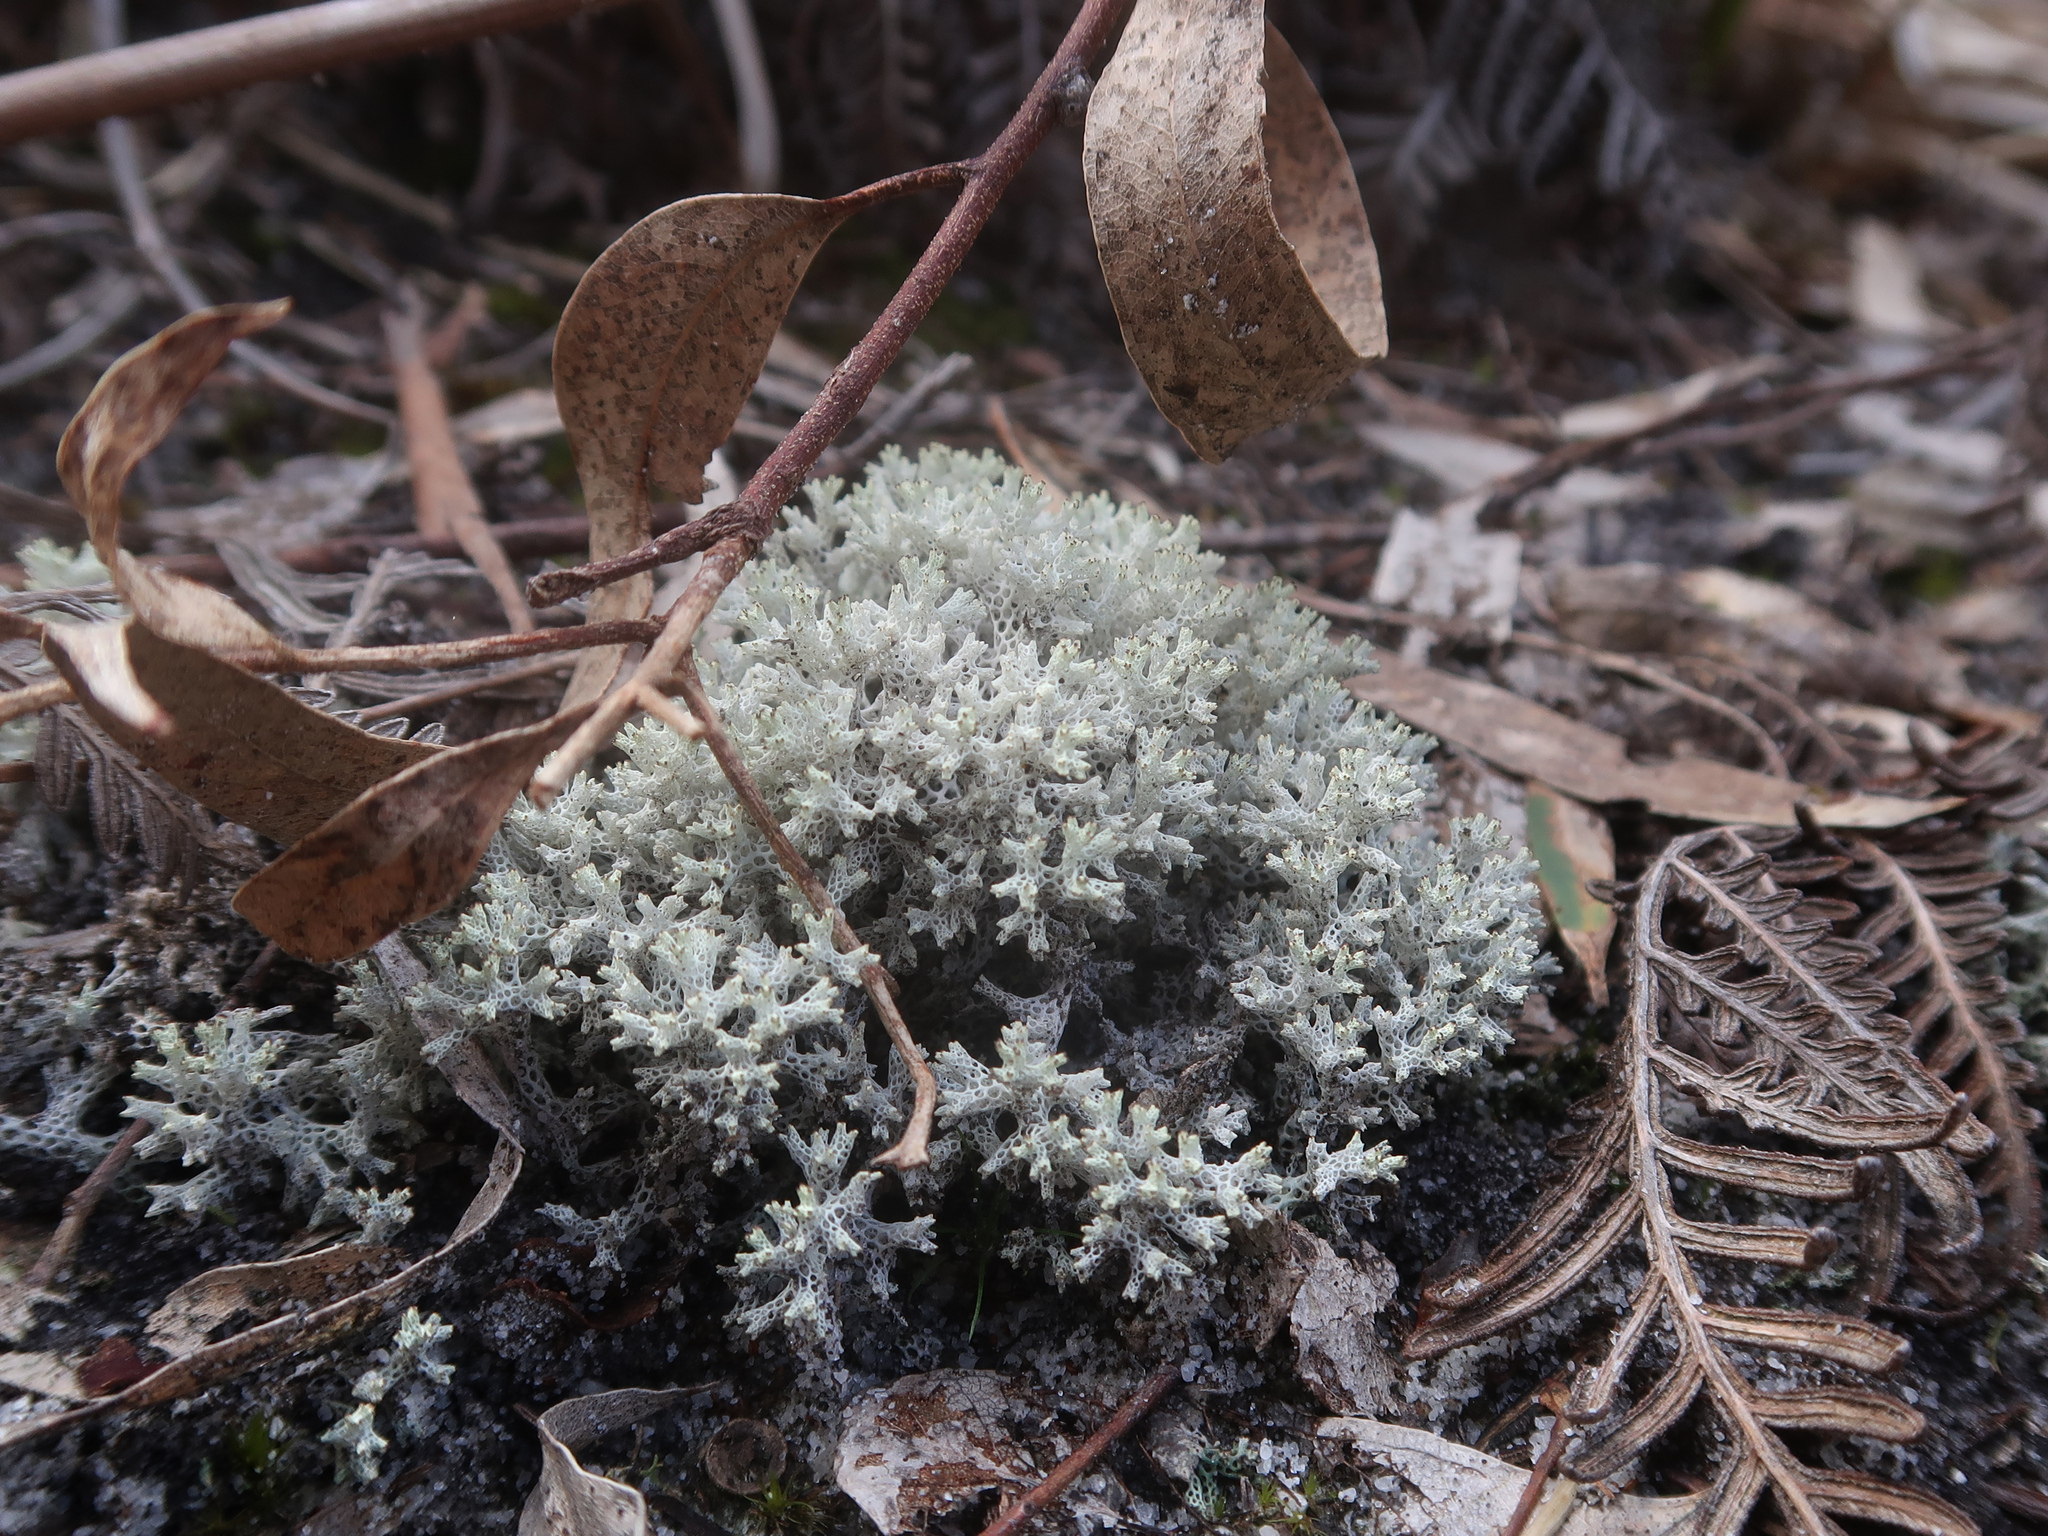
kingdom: Fungi
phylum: Ascomycota
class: Lecanoromycetes
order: Lecanorales
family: Cladoniaceae
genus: Pulchrocladia
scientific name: Pulchrocladia retipora
